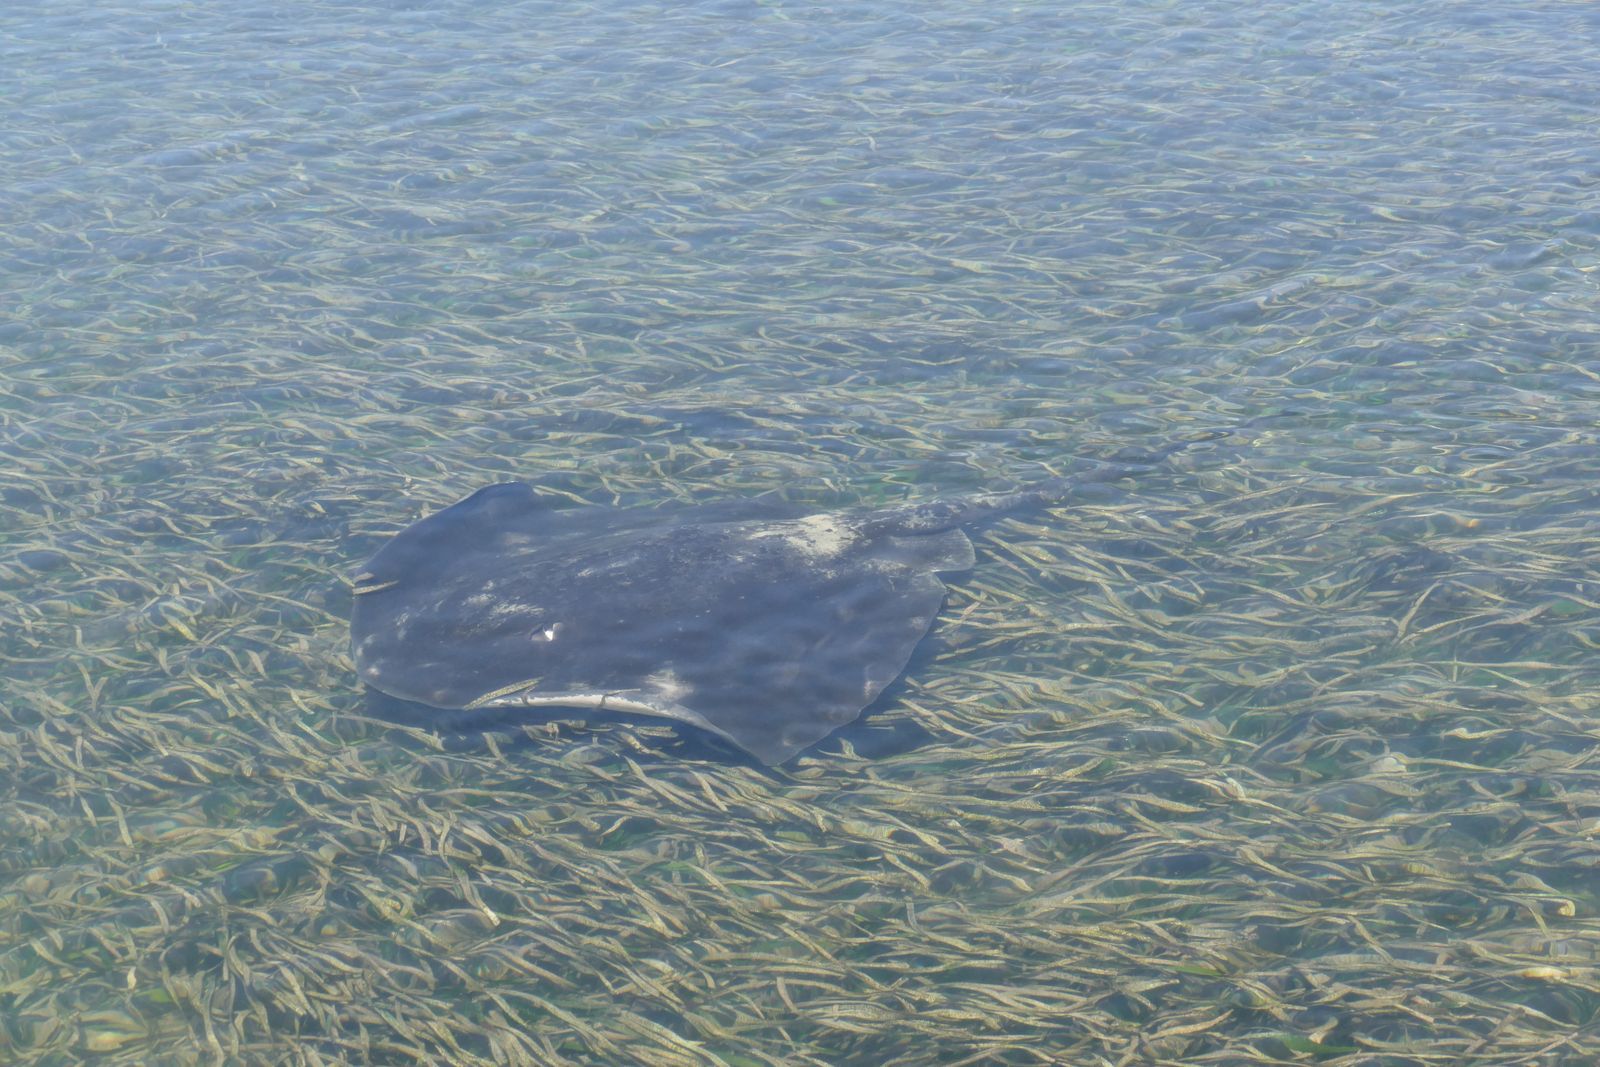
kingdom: Animalia
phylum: Chordata
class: Elasmobranchii
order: Myliobatiformes
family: Dasyatidae
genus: Bathytoshia
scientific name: Bathytoshia brevicaudata
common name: Short-tail stingray
